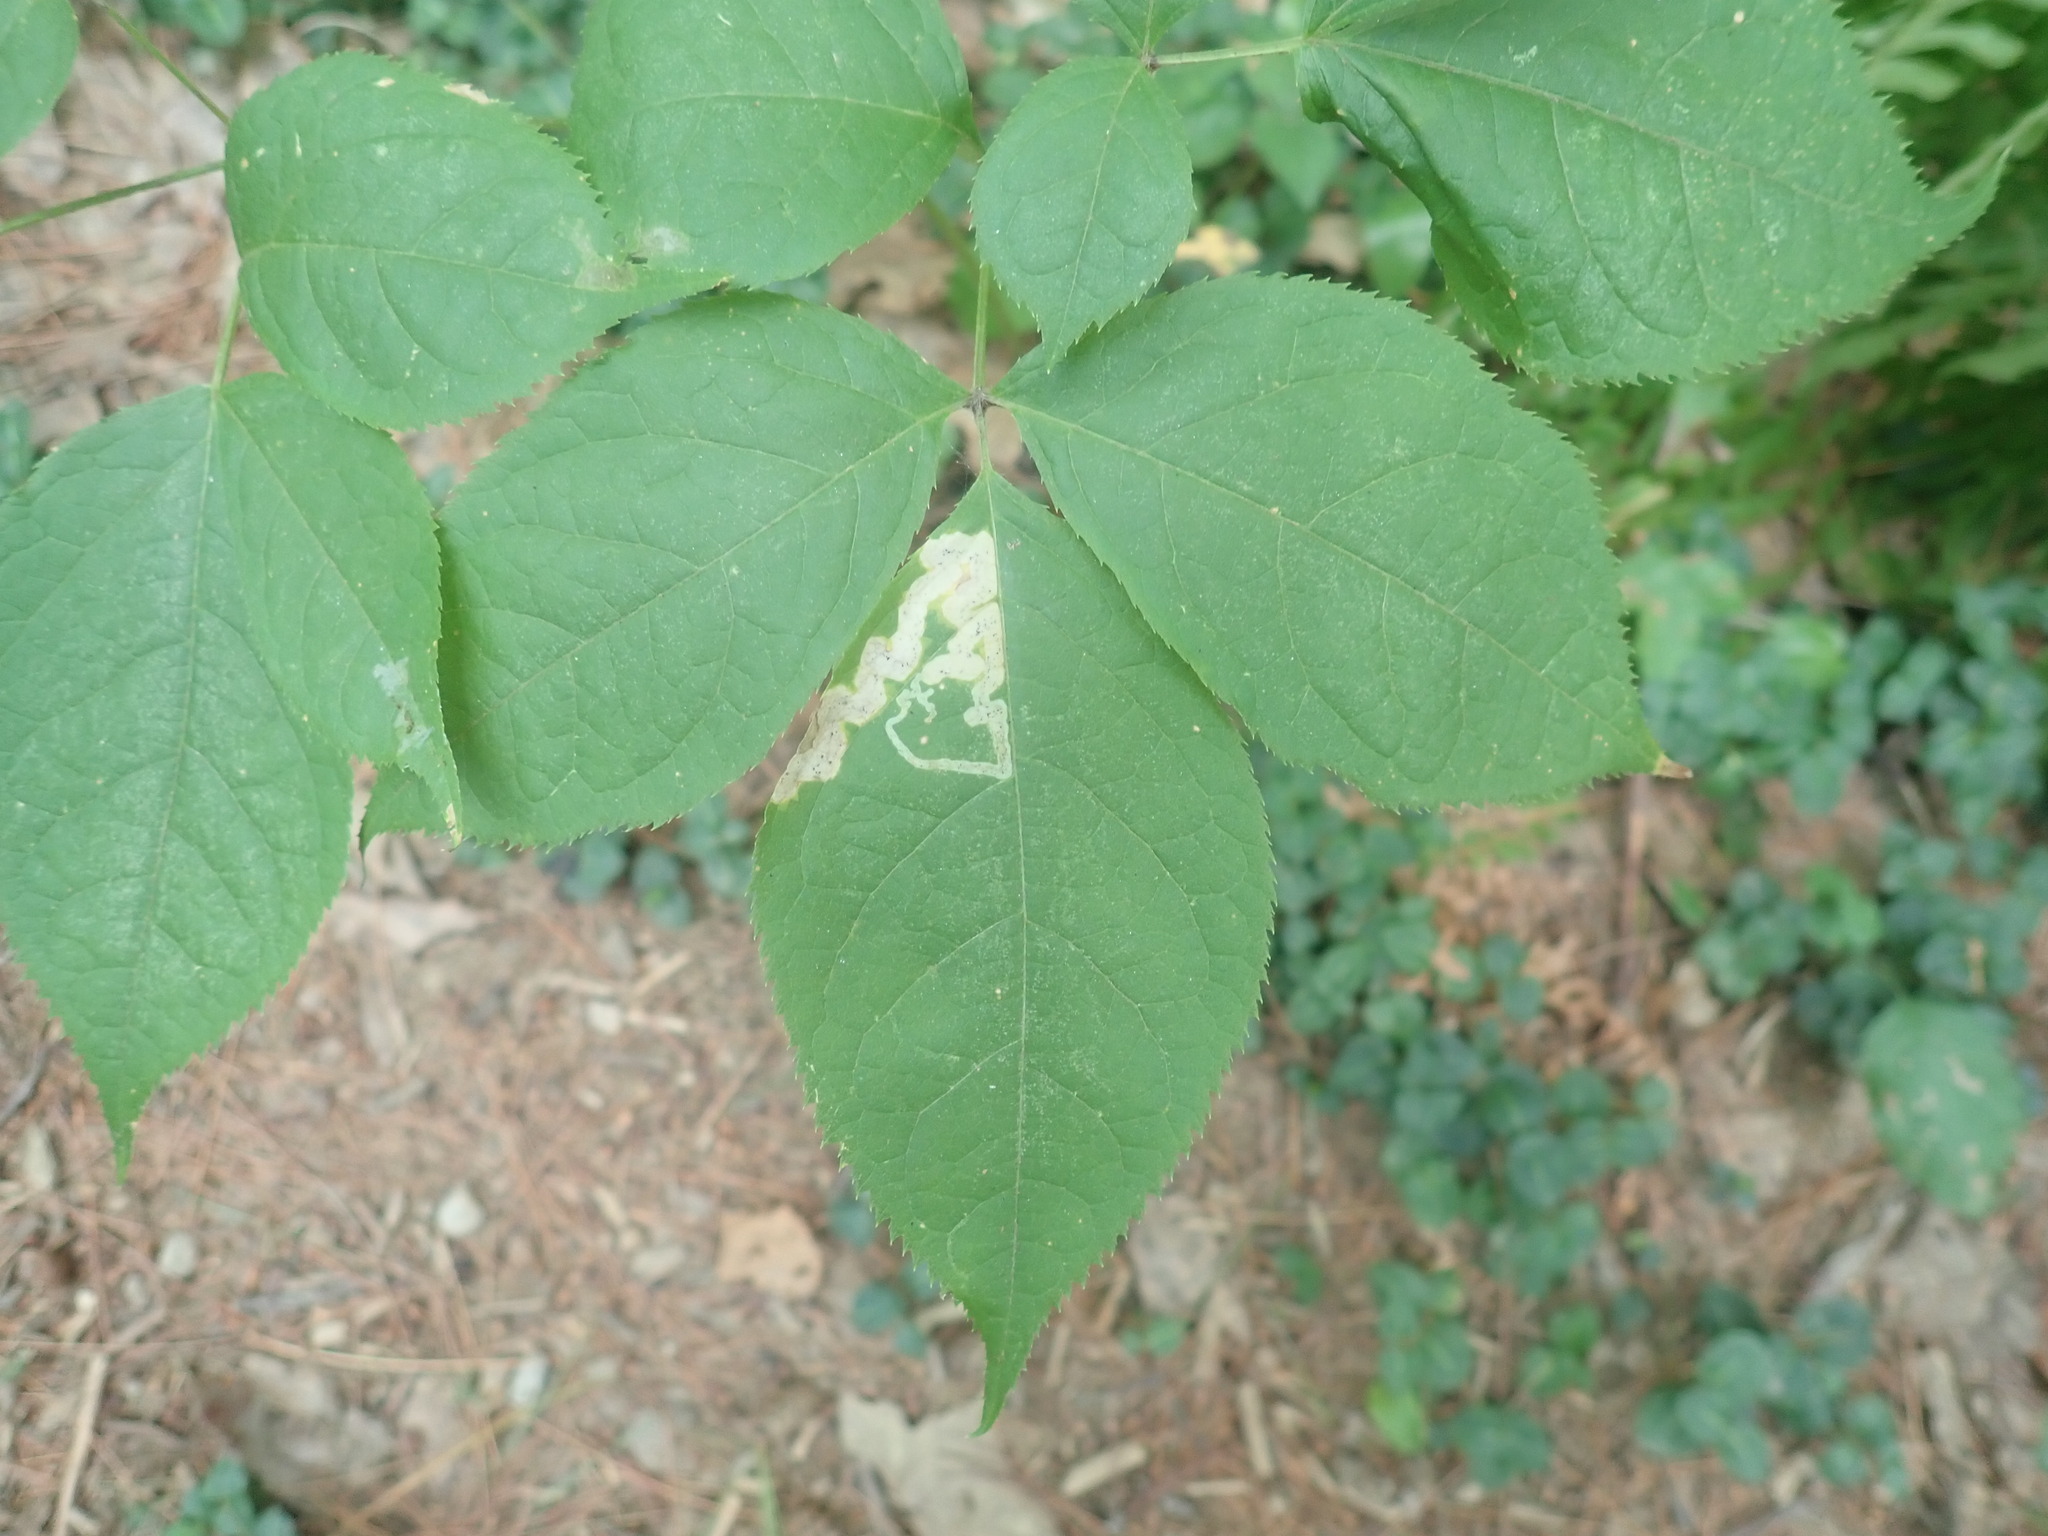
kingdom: Animalia
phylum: Arthropoda
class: Insecta
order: Diptera
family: Agromyzidae
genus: Phytomyza
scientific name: Phytomyza aralivora
